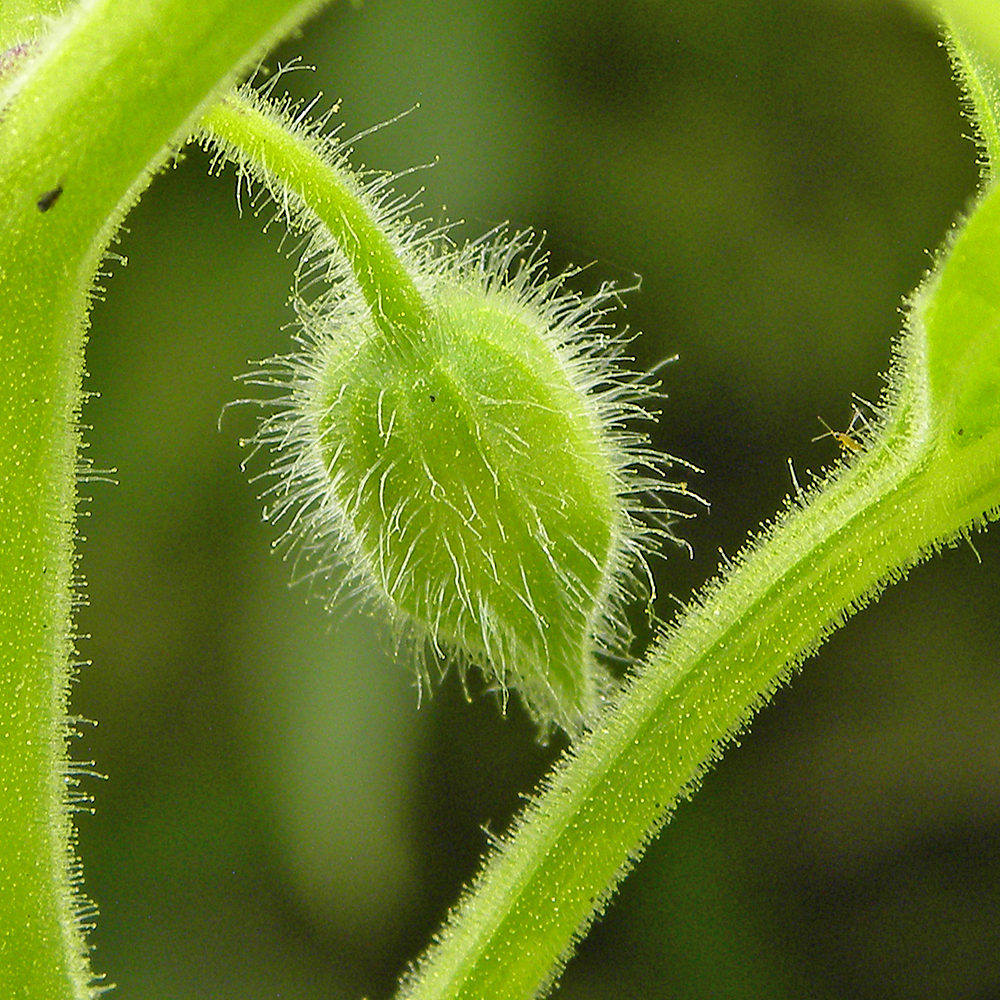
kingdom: Plantae
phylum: Tracheophyta
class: Magnoliopsida
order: Solanales
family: Solanaceae
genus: Physalis
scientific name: Physalis heterophylla
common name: Clammy ground-cherry
